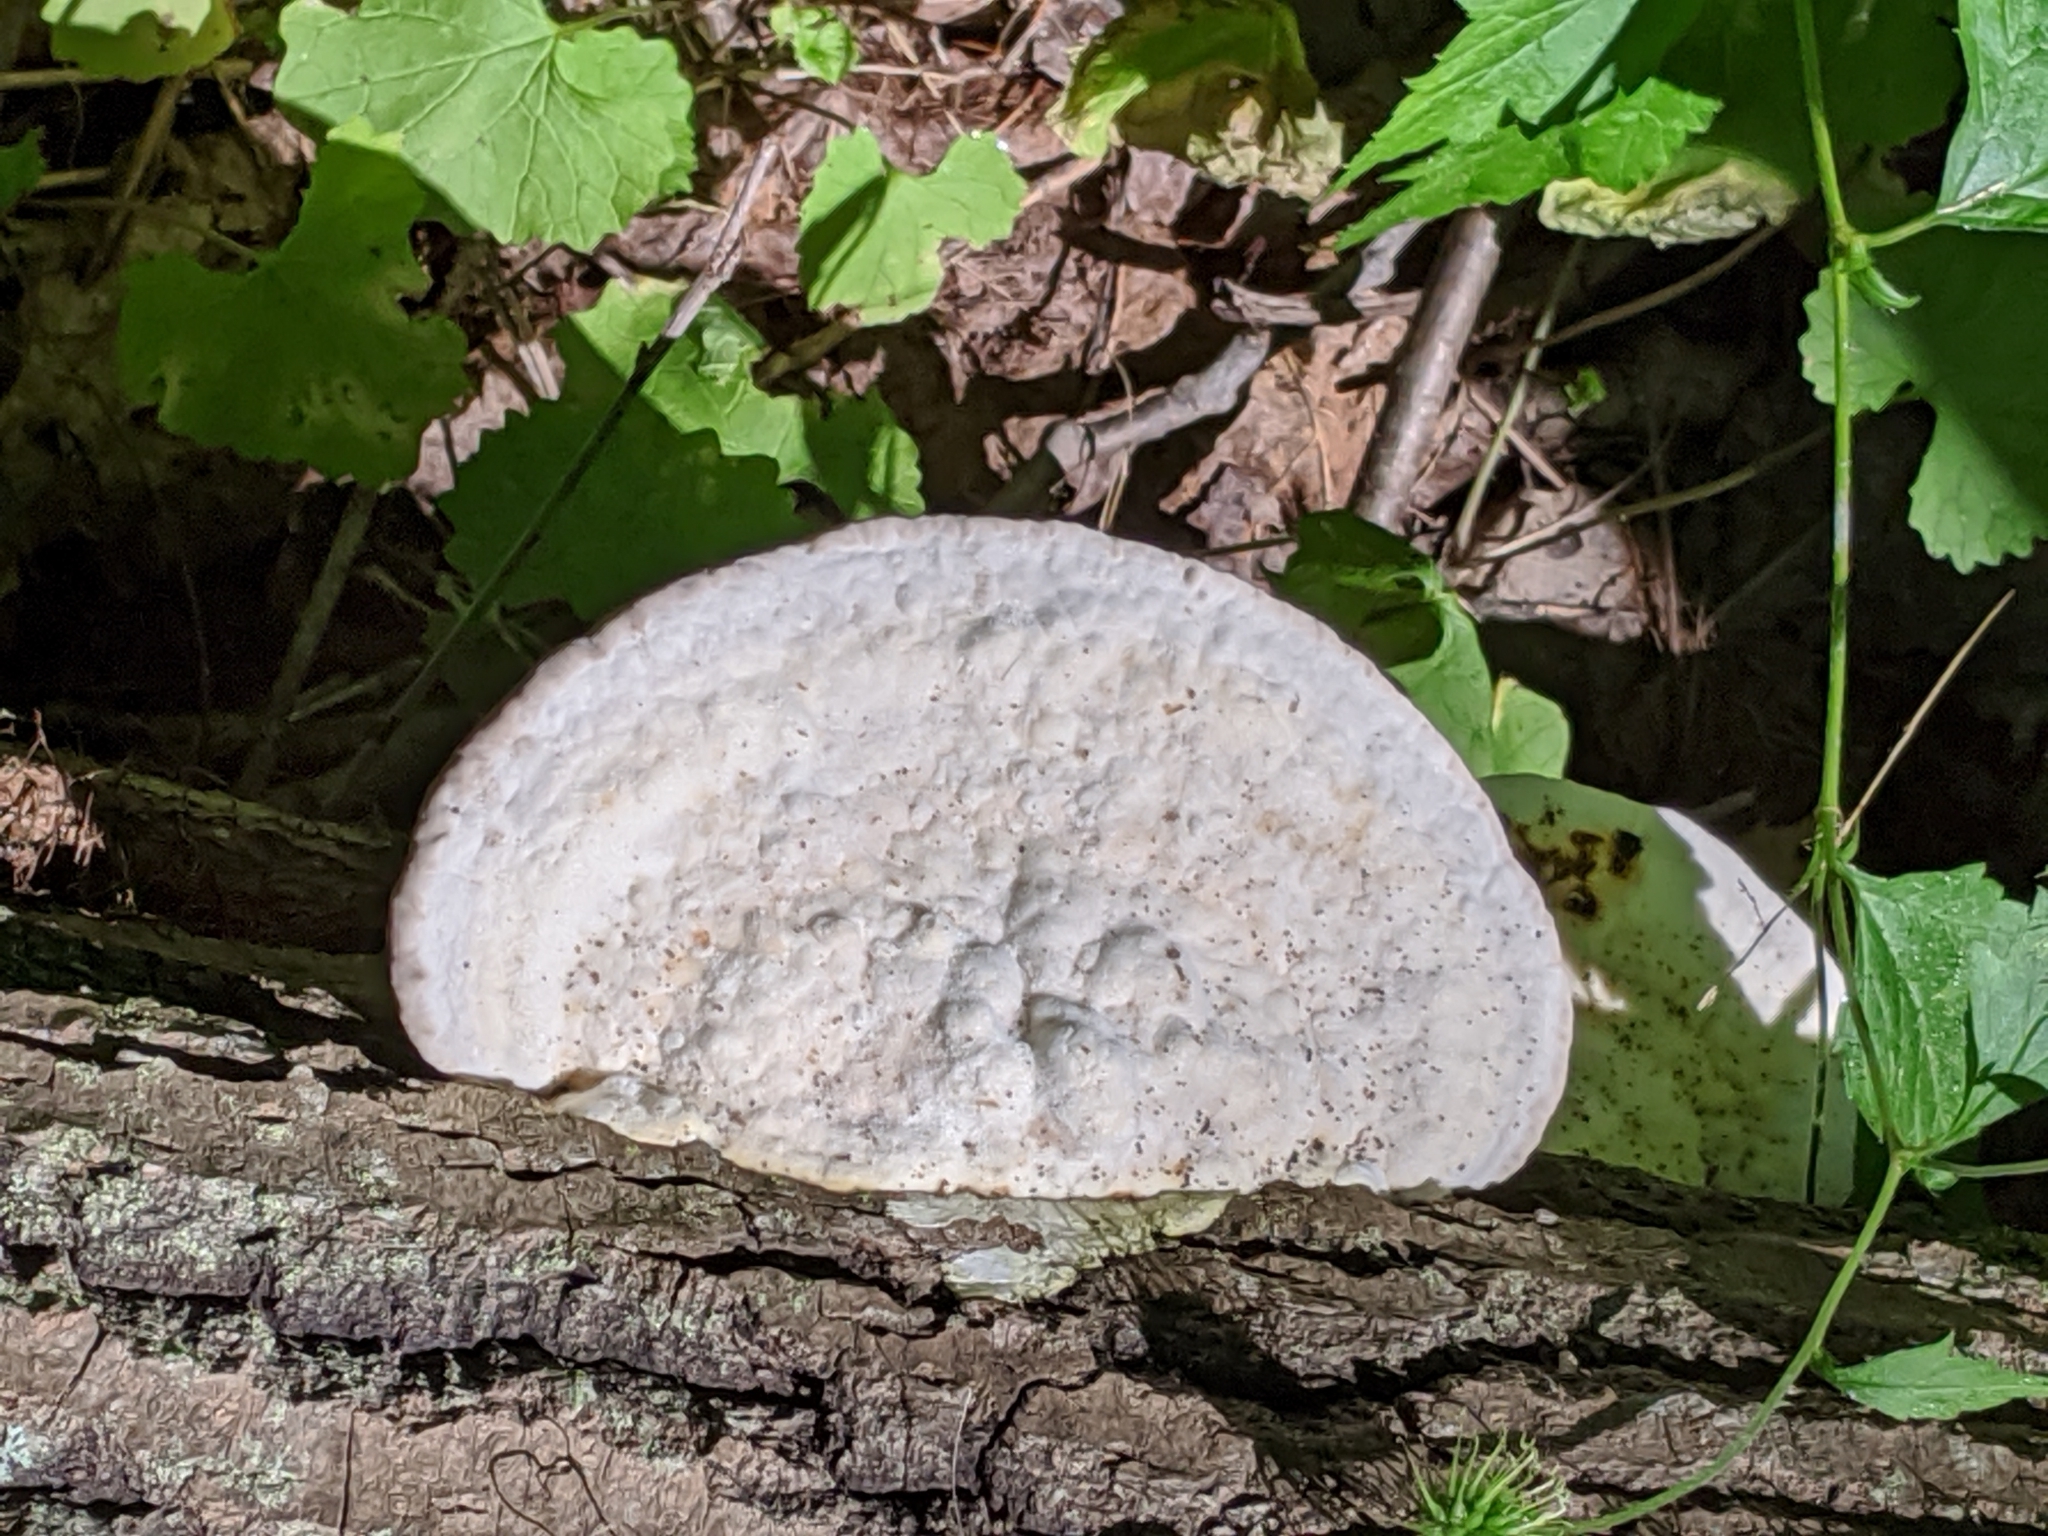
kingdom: Fungi
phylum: Basidiomycota
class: Agaricomycetes
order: Polyporales
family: Polyporaceae
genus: Trametes
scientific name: Trametes gibbosa
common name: Lumpy bracket
